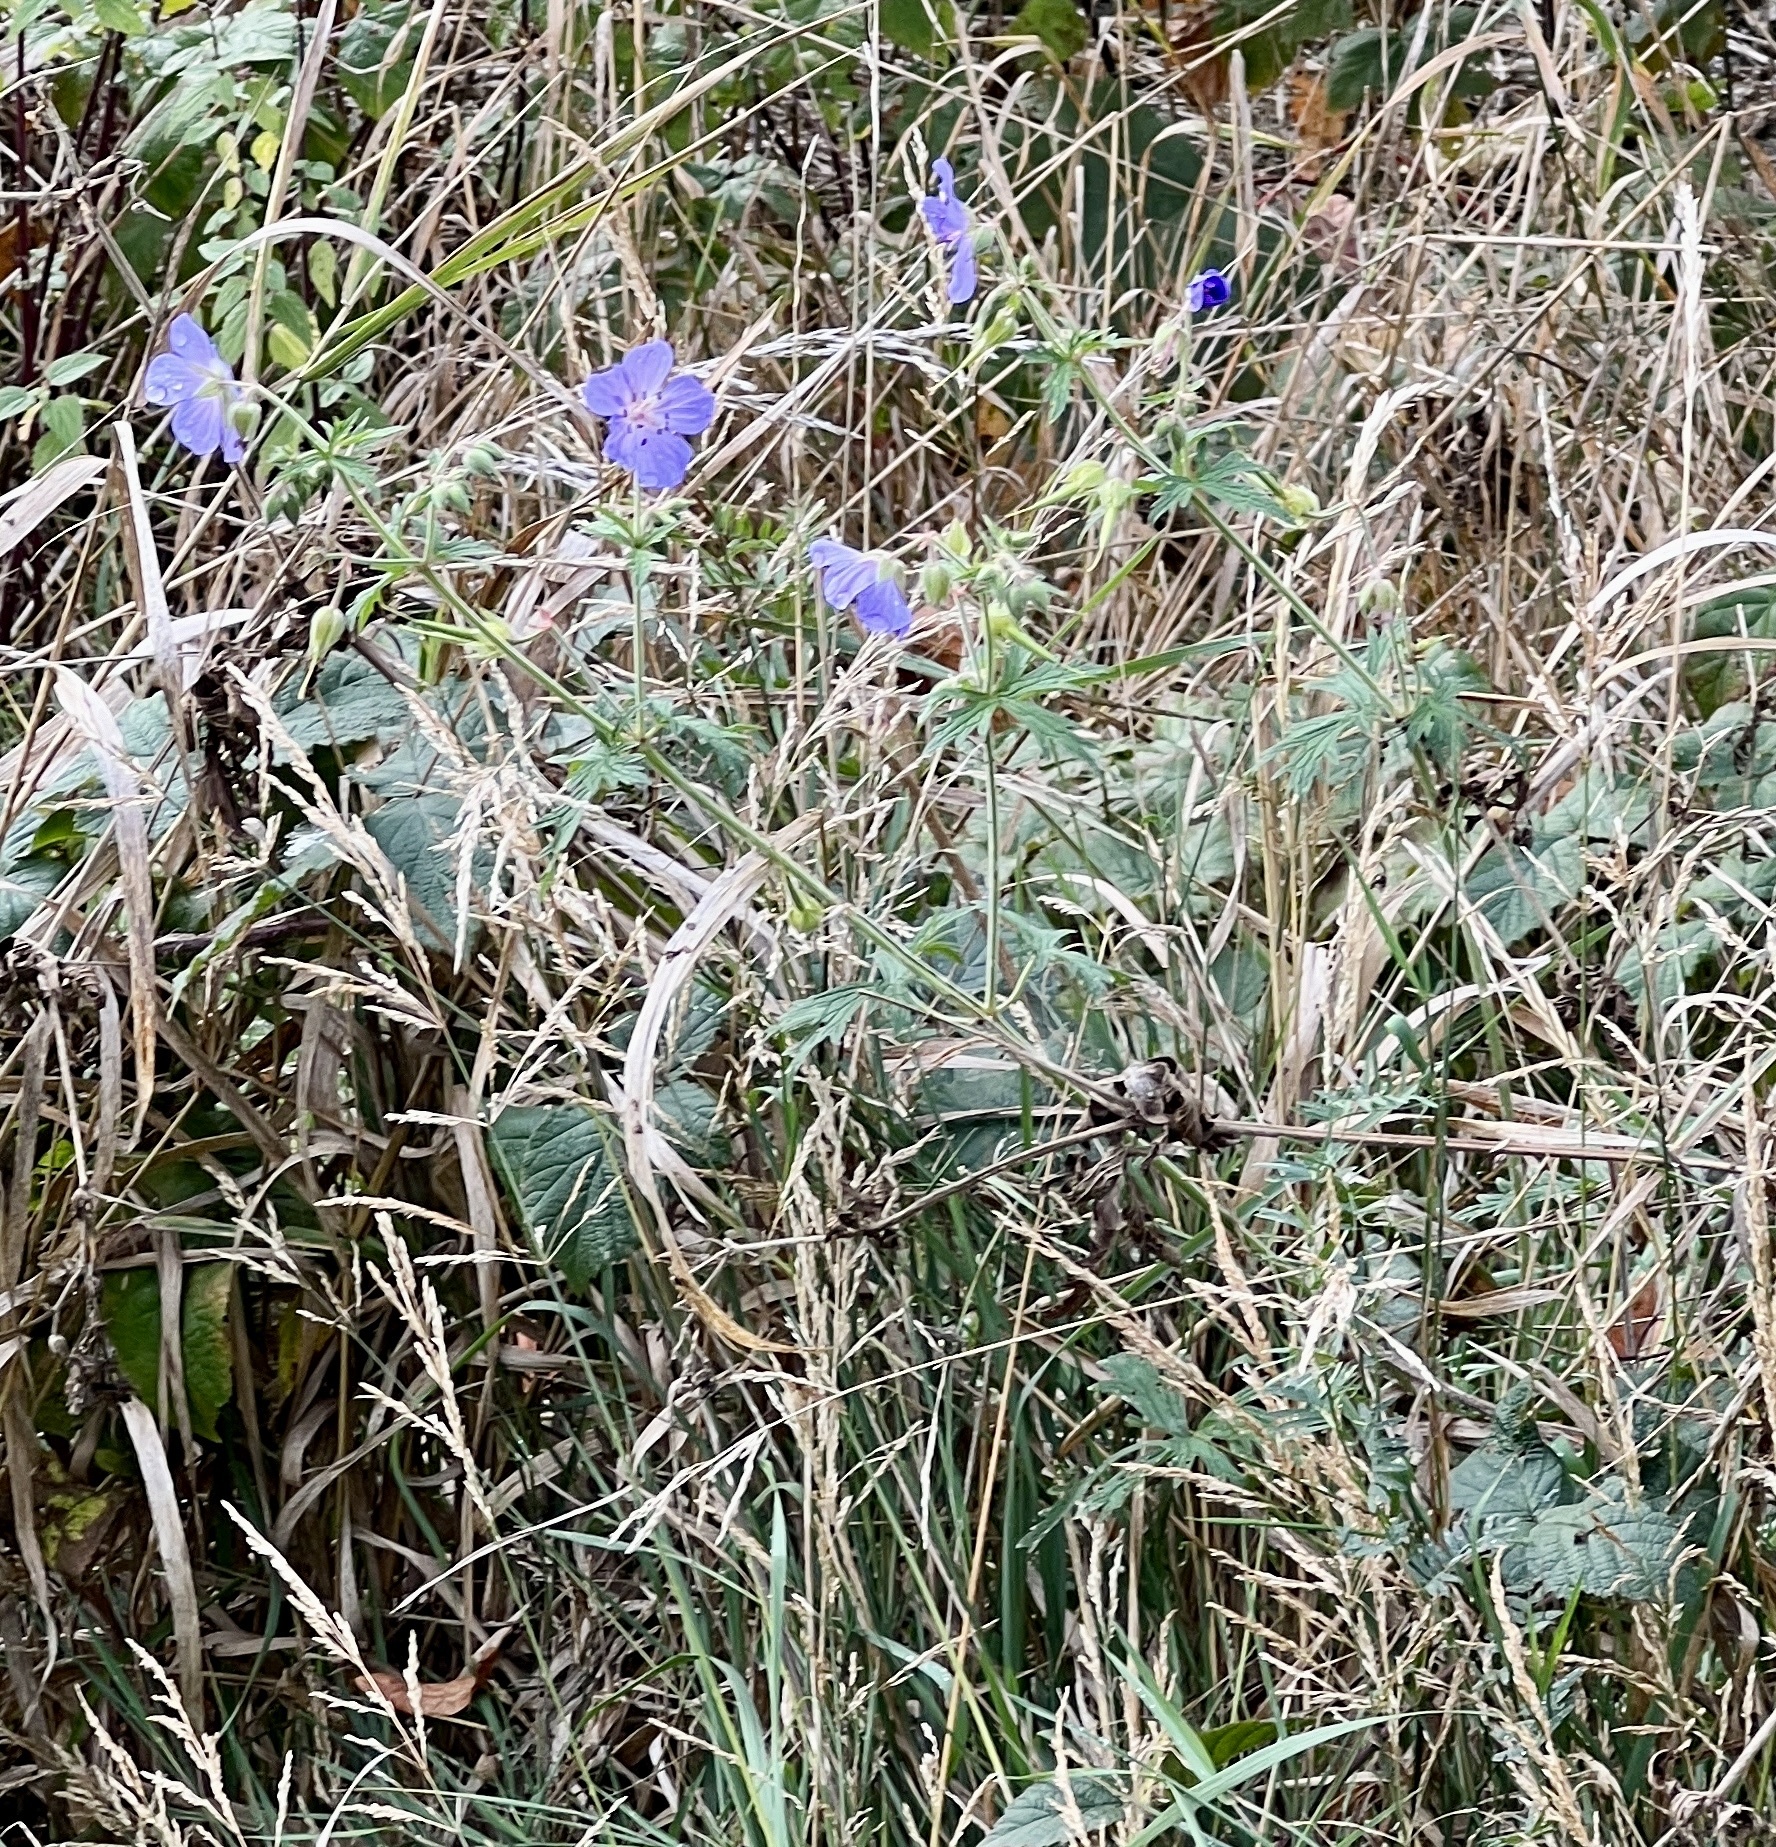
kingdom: Plantae
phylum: Tracheophyta
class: Magnoliopsida
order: Geraniales
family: Geraniaceae
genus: Geranium
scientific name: Geranium pratense
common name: Meadow crane's-bill
